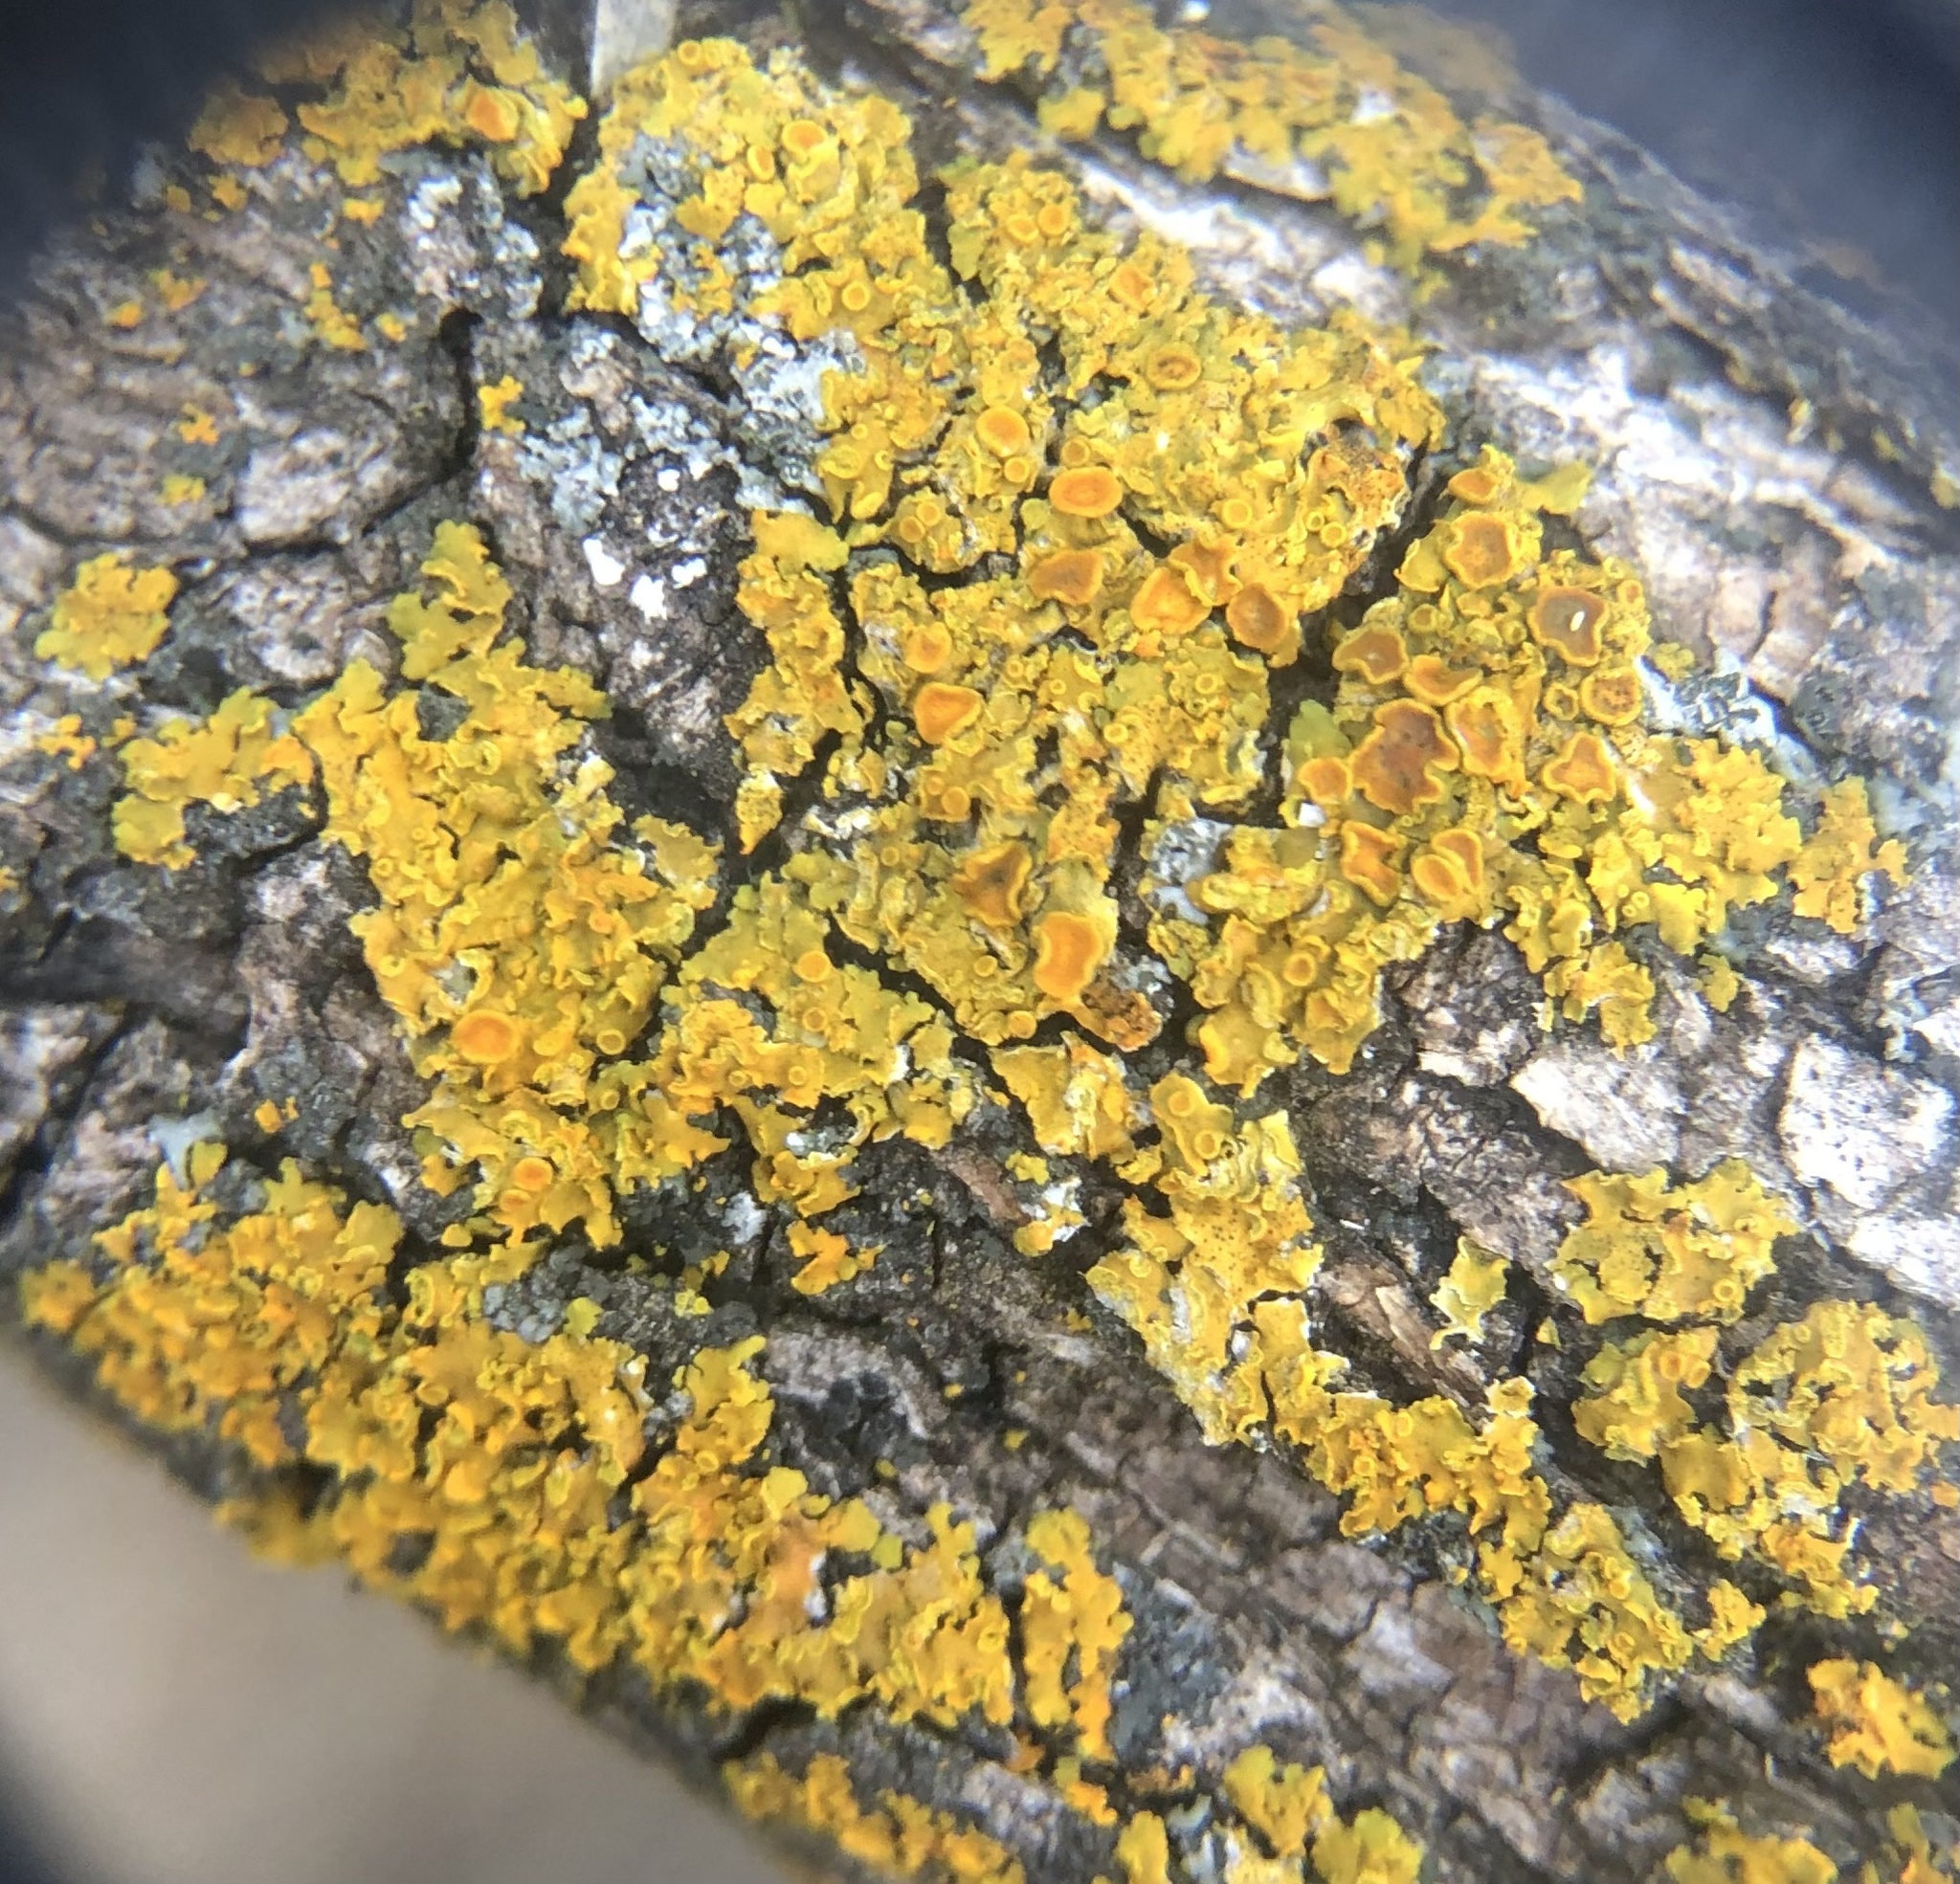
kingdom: Fungi
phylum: Ascomycota
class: Lecanoromycetes
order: Teloschistales
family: Teloschistaceae
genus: Xanthoria
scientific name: Xanthoria parietina
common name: Common orange lichen
